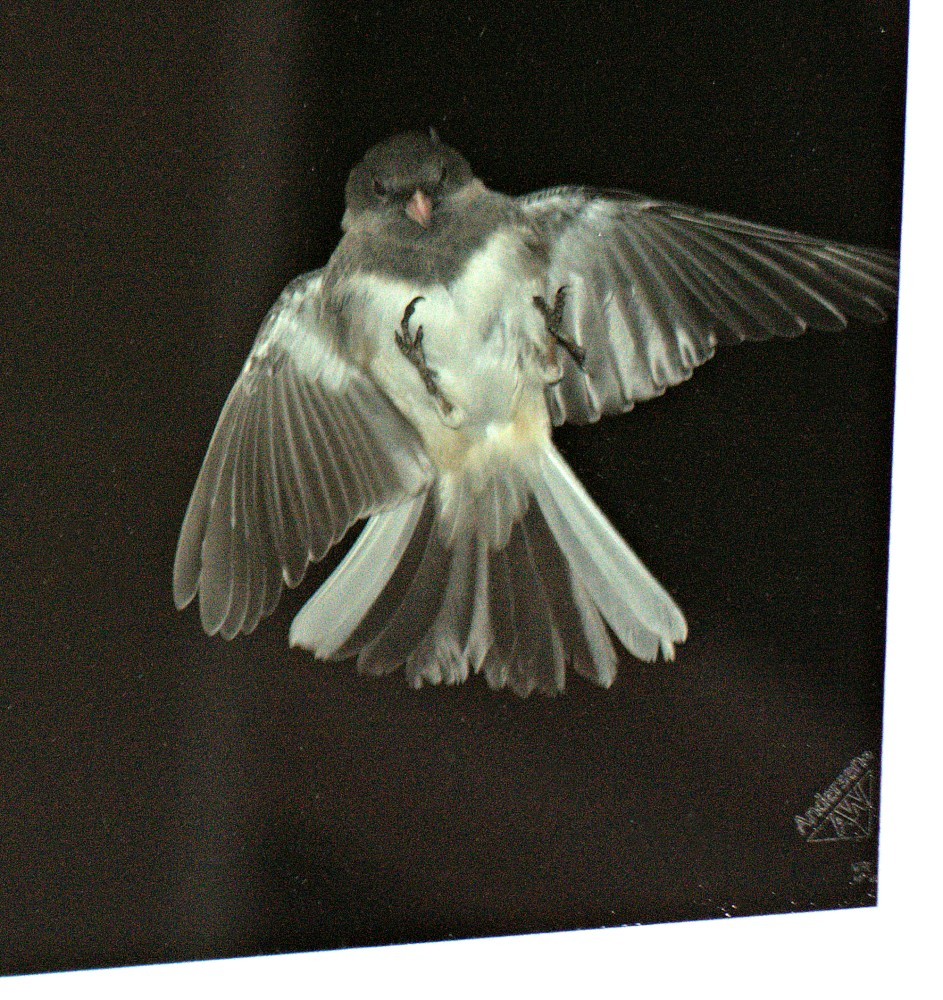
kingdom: Animalia
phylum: Chordata
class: Aves
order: Passeriformes
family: Passerellidae
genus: Junco
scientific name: Junco hyemalis
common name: Dark-eyed junco
